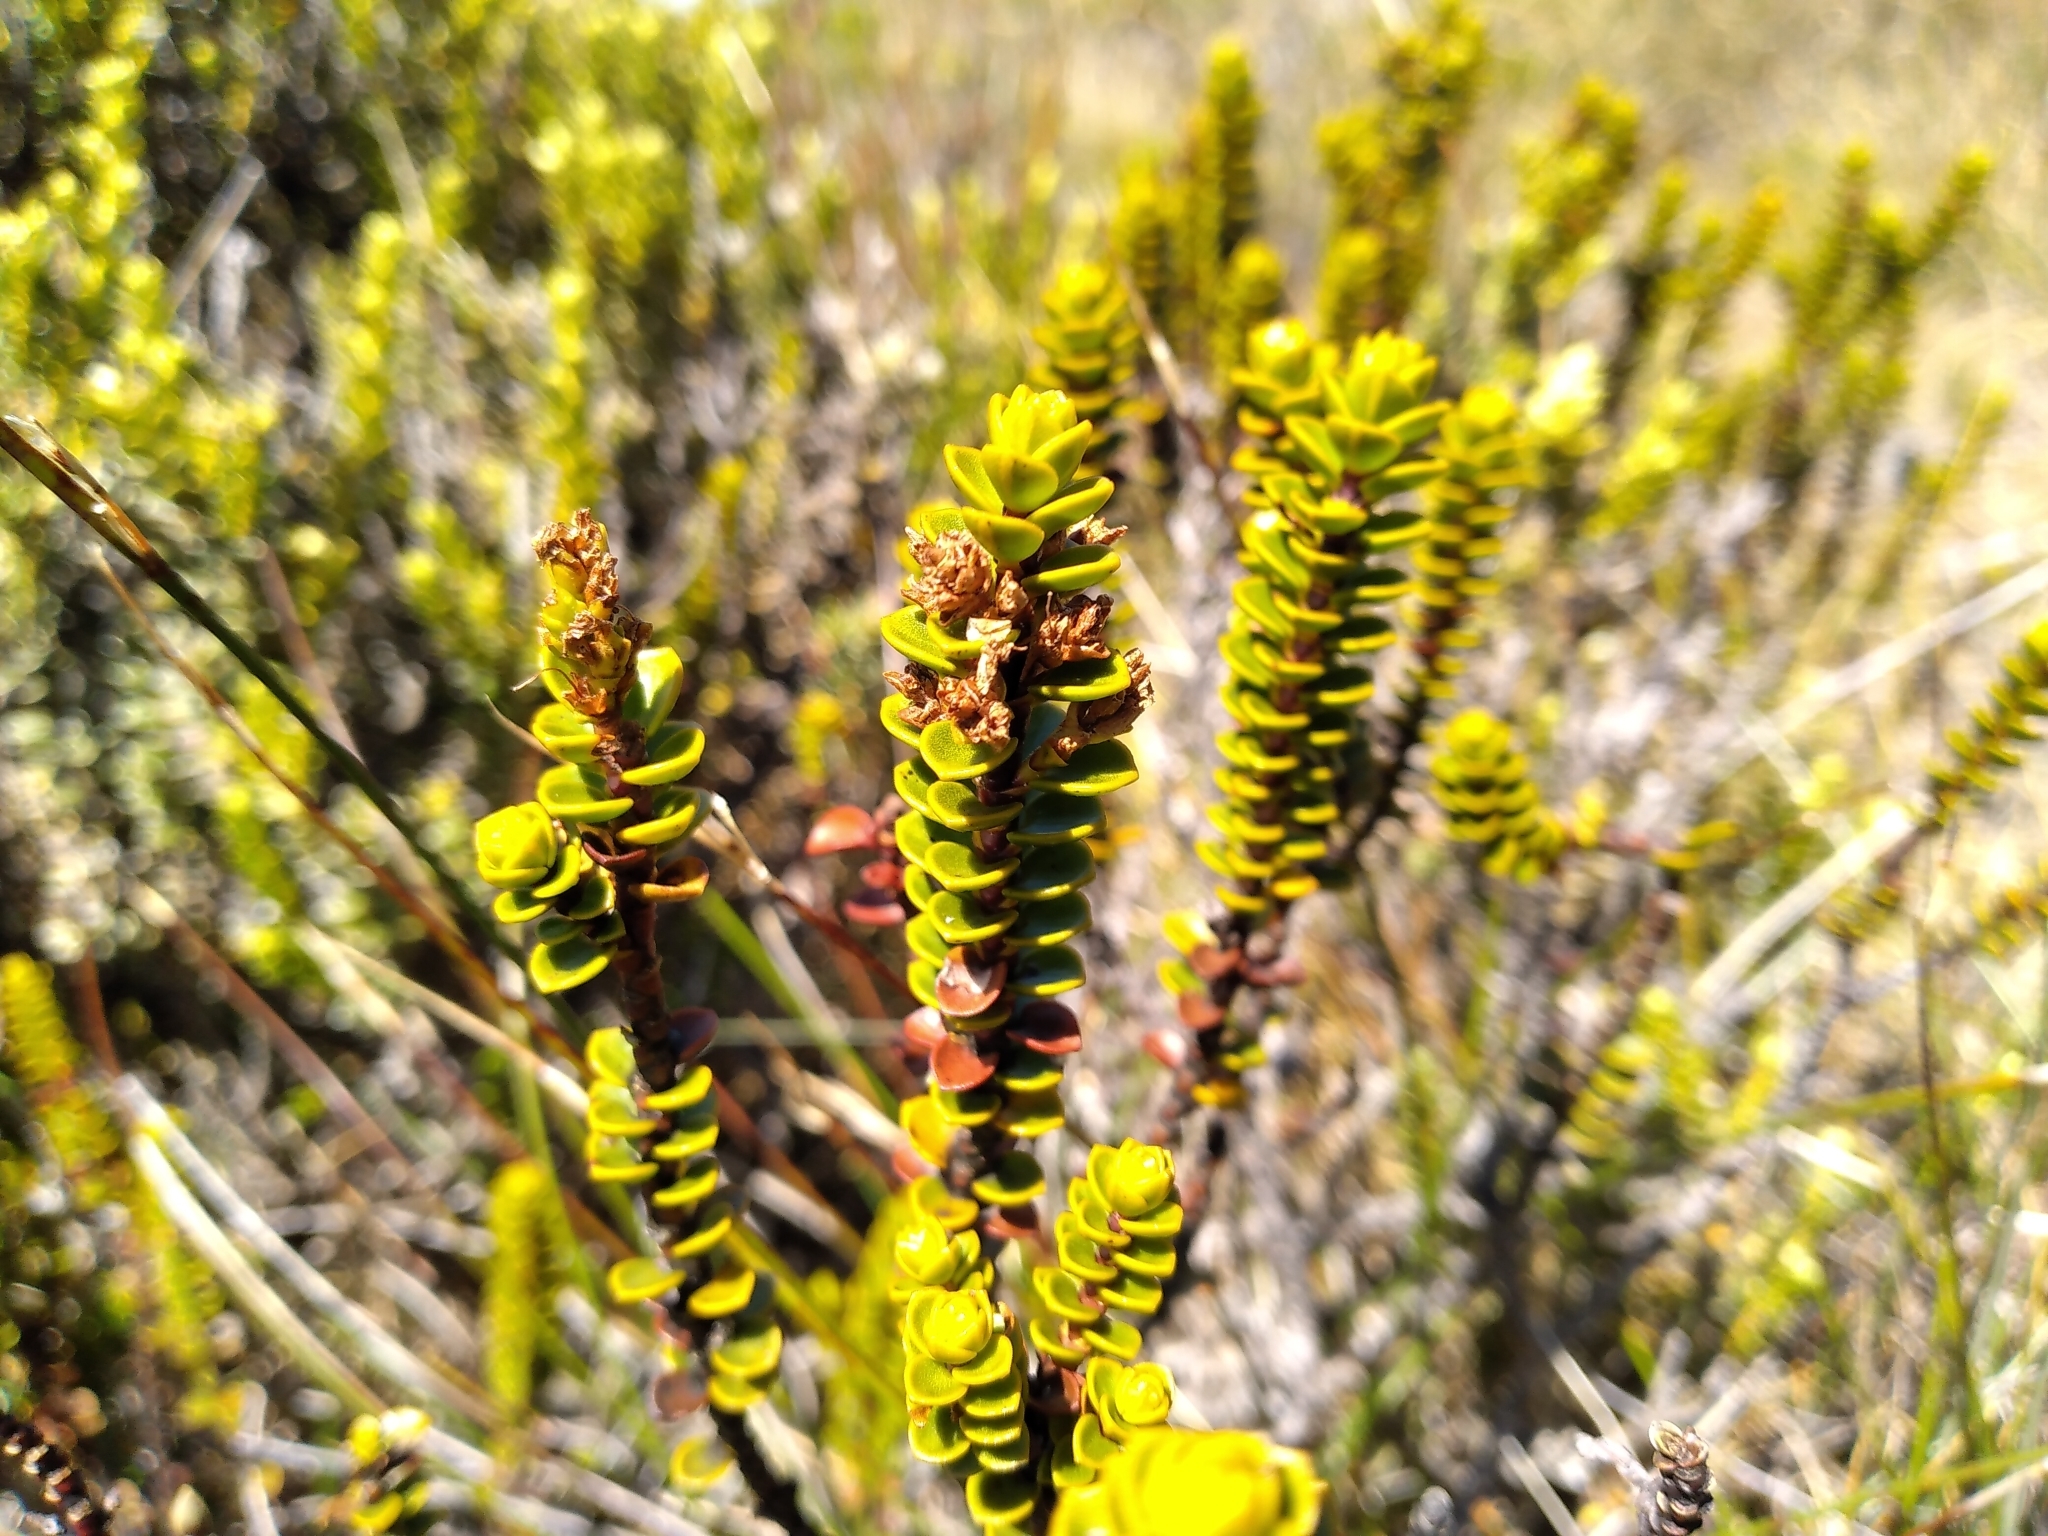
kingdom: Plantae
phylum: Tracheophyta
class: Magnoliopsida
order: Lamiales
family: Plantaginaceae
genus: Veronica
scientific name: Veronica pauciramosa
